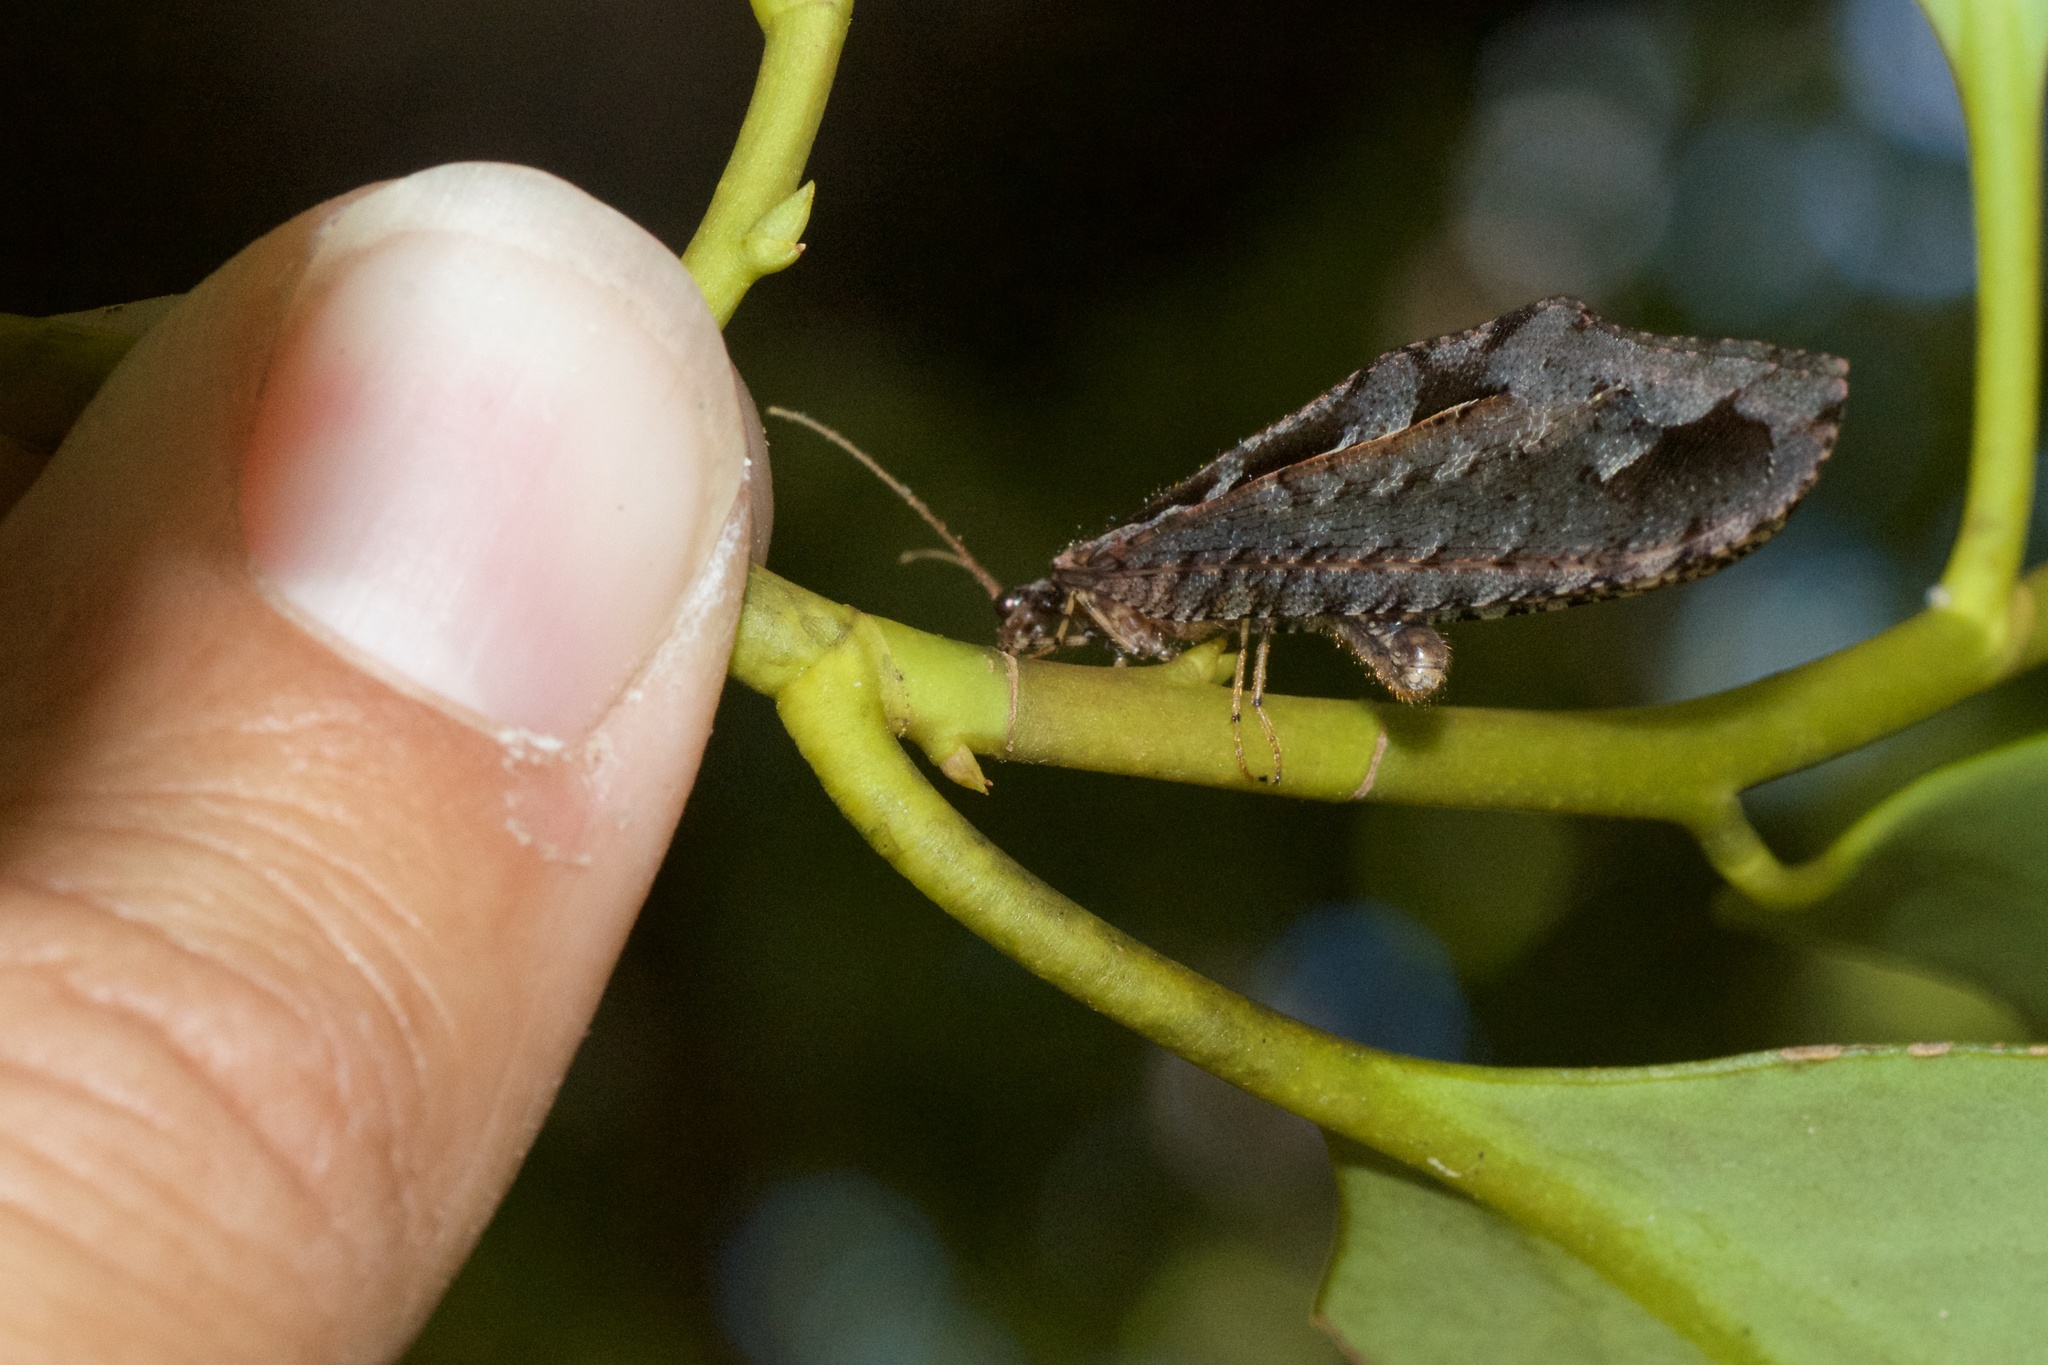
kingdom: Animalia
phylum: Arthropoda
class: Insecta
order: Neuroptera
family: Osmylidae
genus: Kempynus
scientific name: Kempynus incisus
